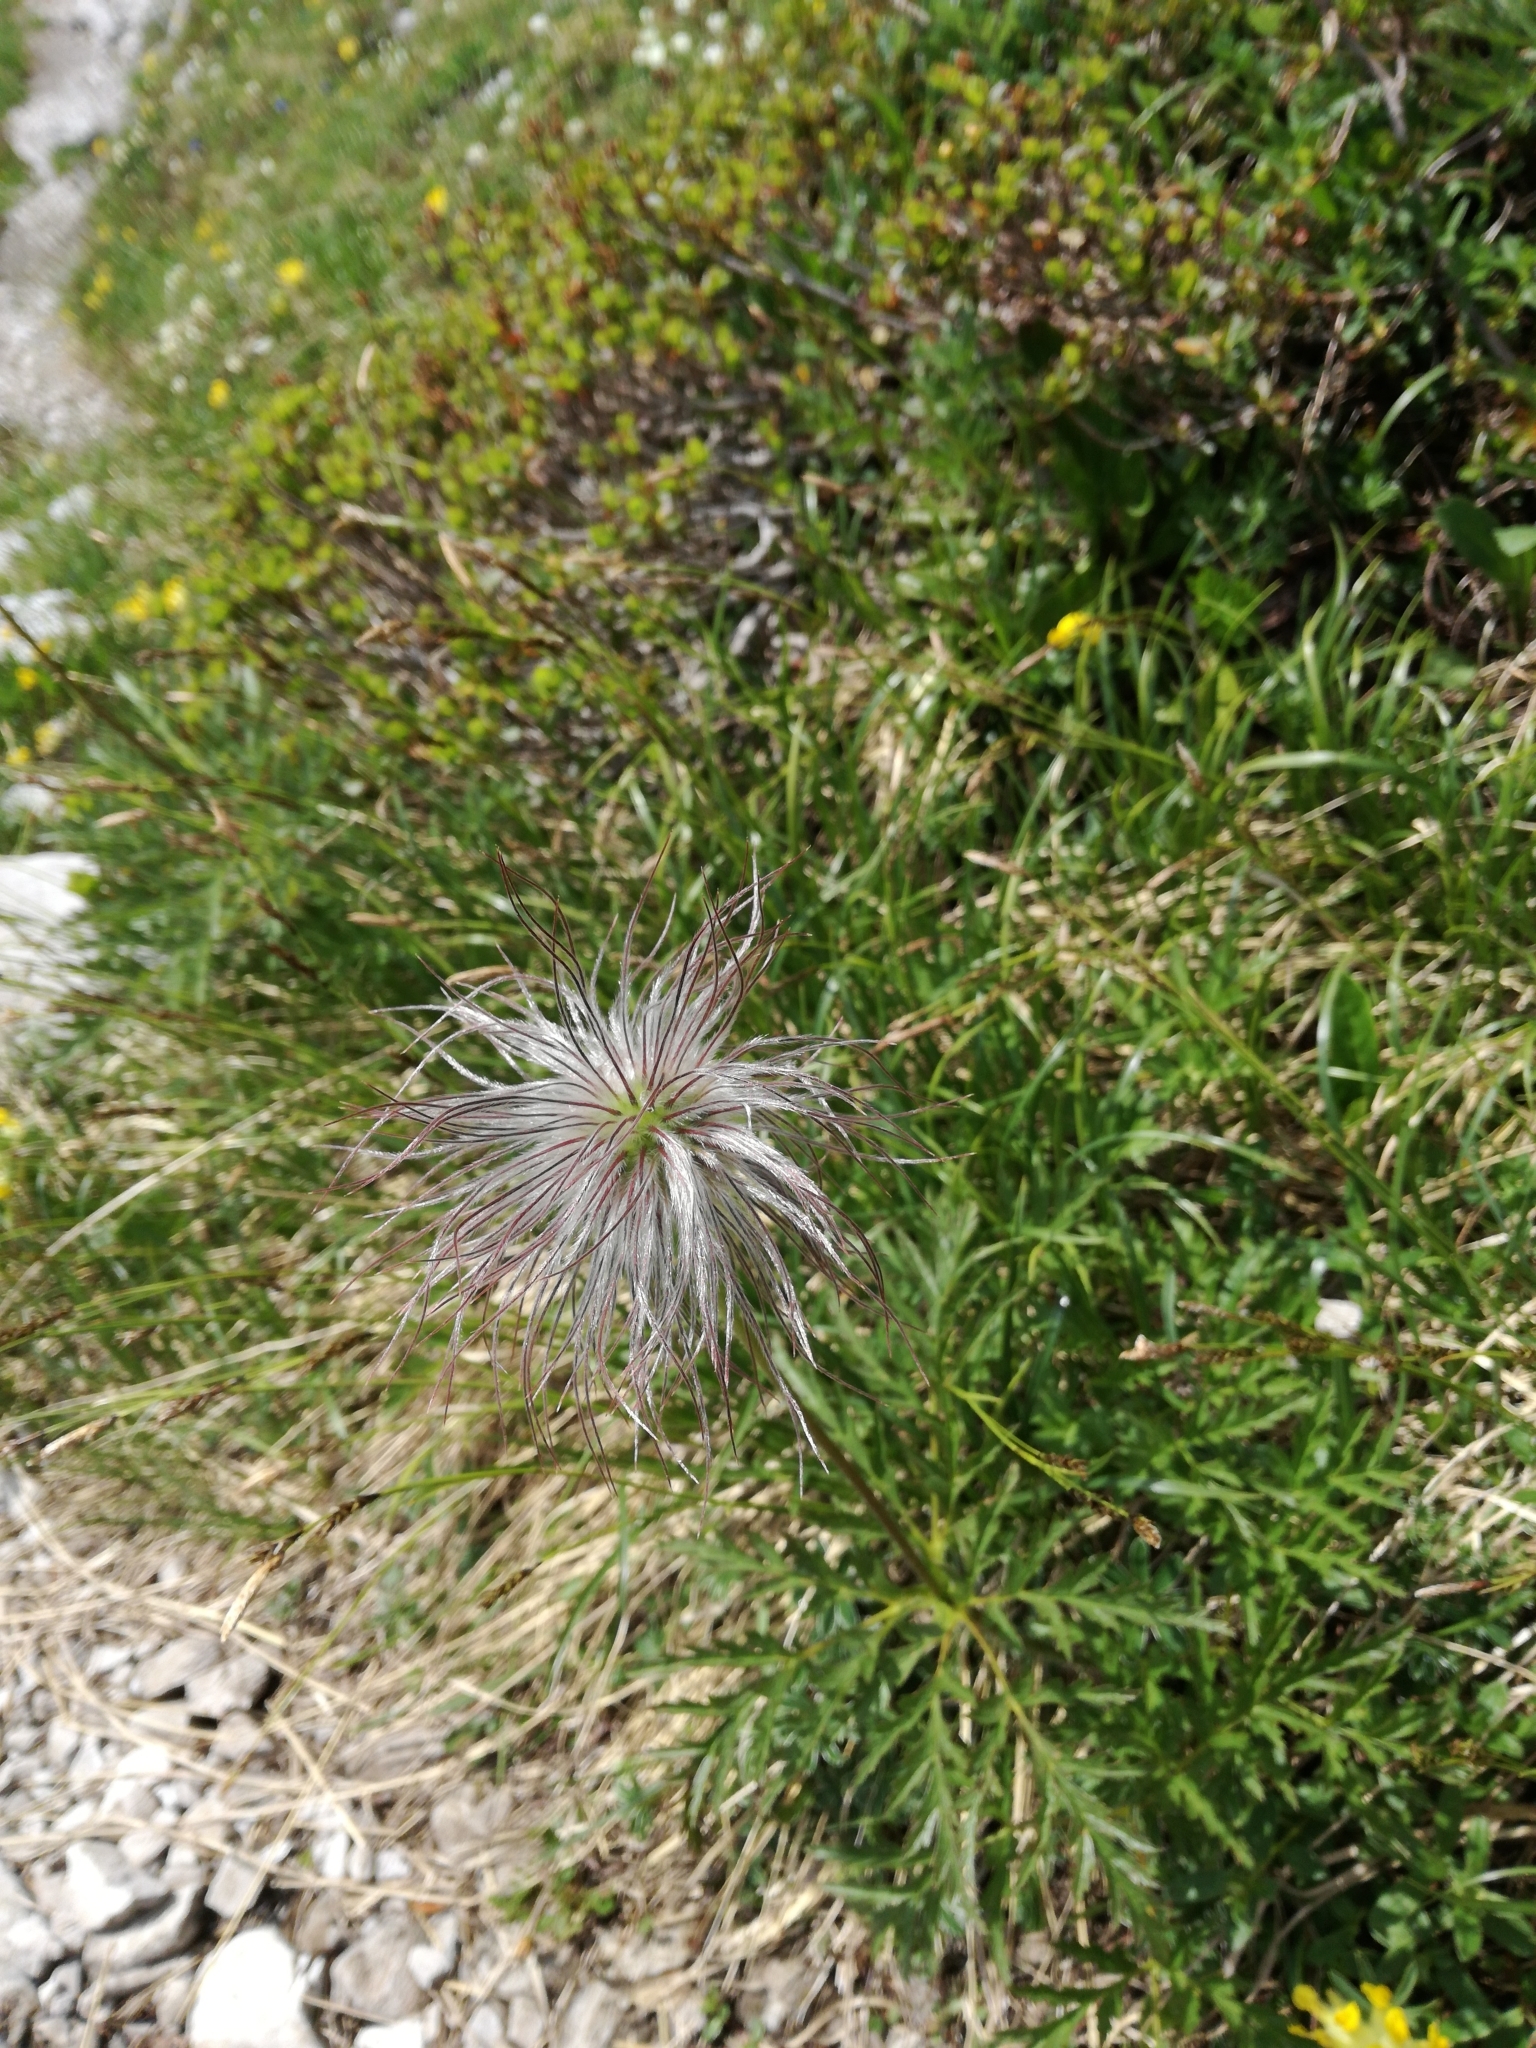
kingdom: Plantae
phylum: Tracheophyta
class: Magnoliopsida
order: Ranunculales
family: Ranunculaceae
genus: Pulsatilla
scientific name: Pulsatilla alpina
